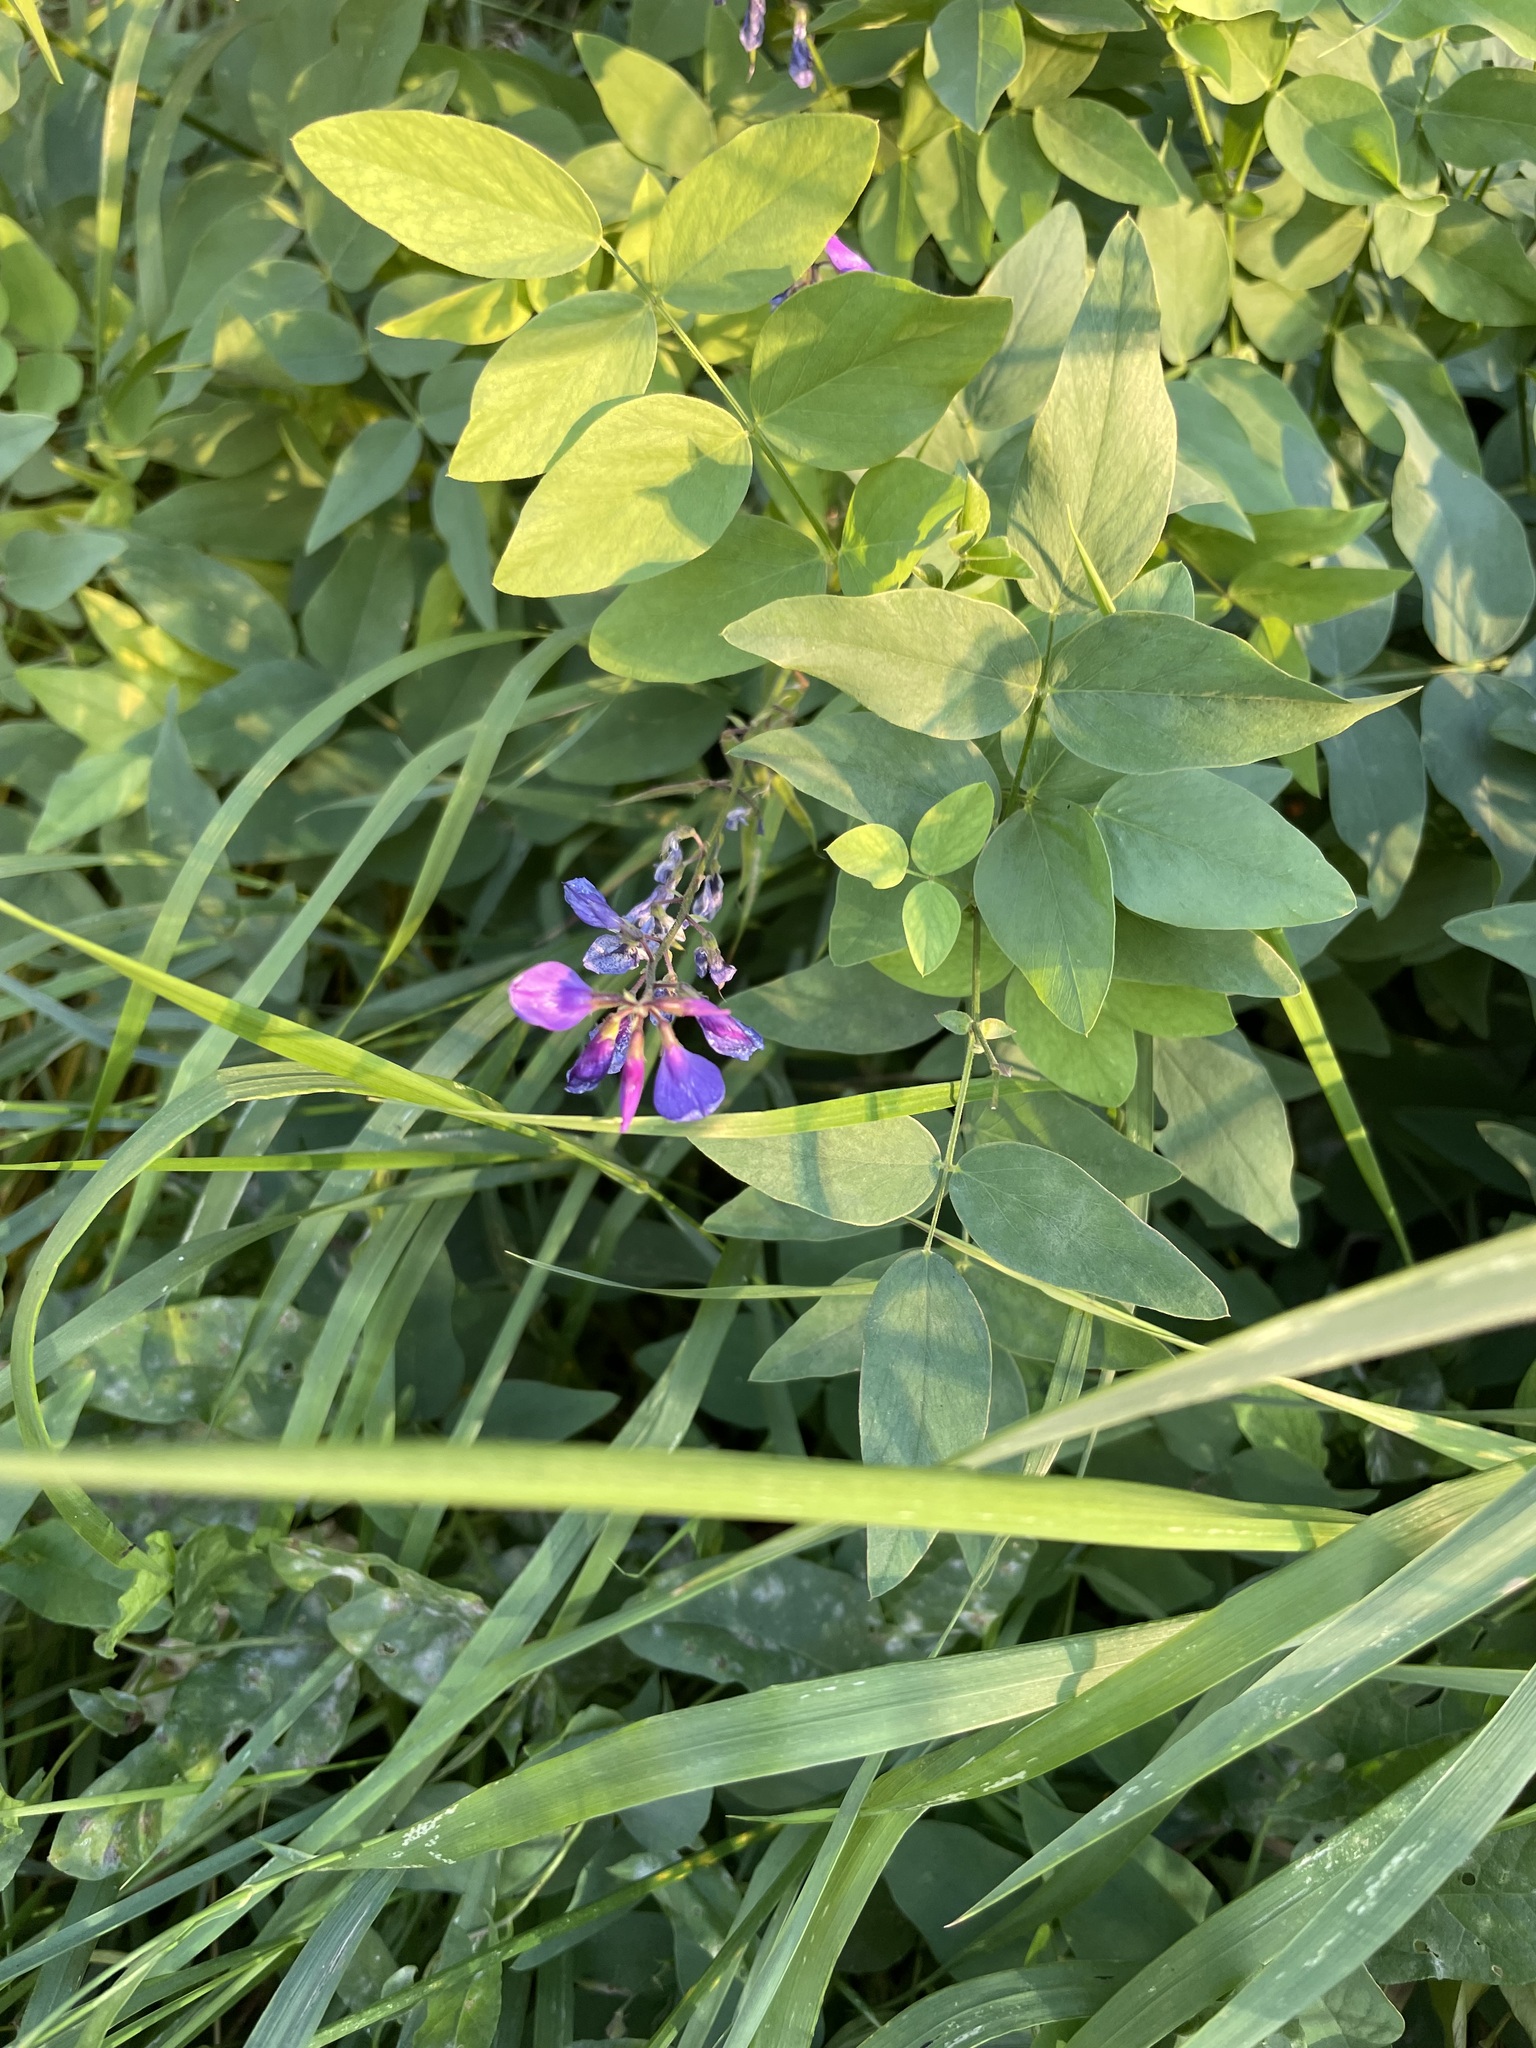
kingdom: Plantae
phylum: Tracheophyta
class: Magnoliopsida
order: Fabales
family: Fabaceae
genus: Galega
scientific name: Galega orientalis
